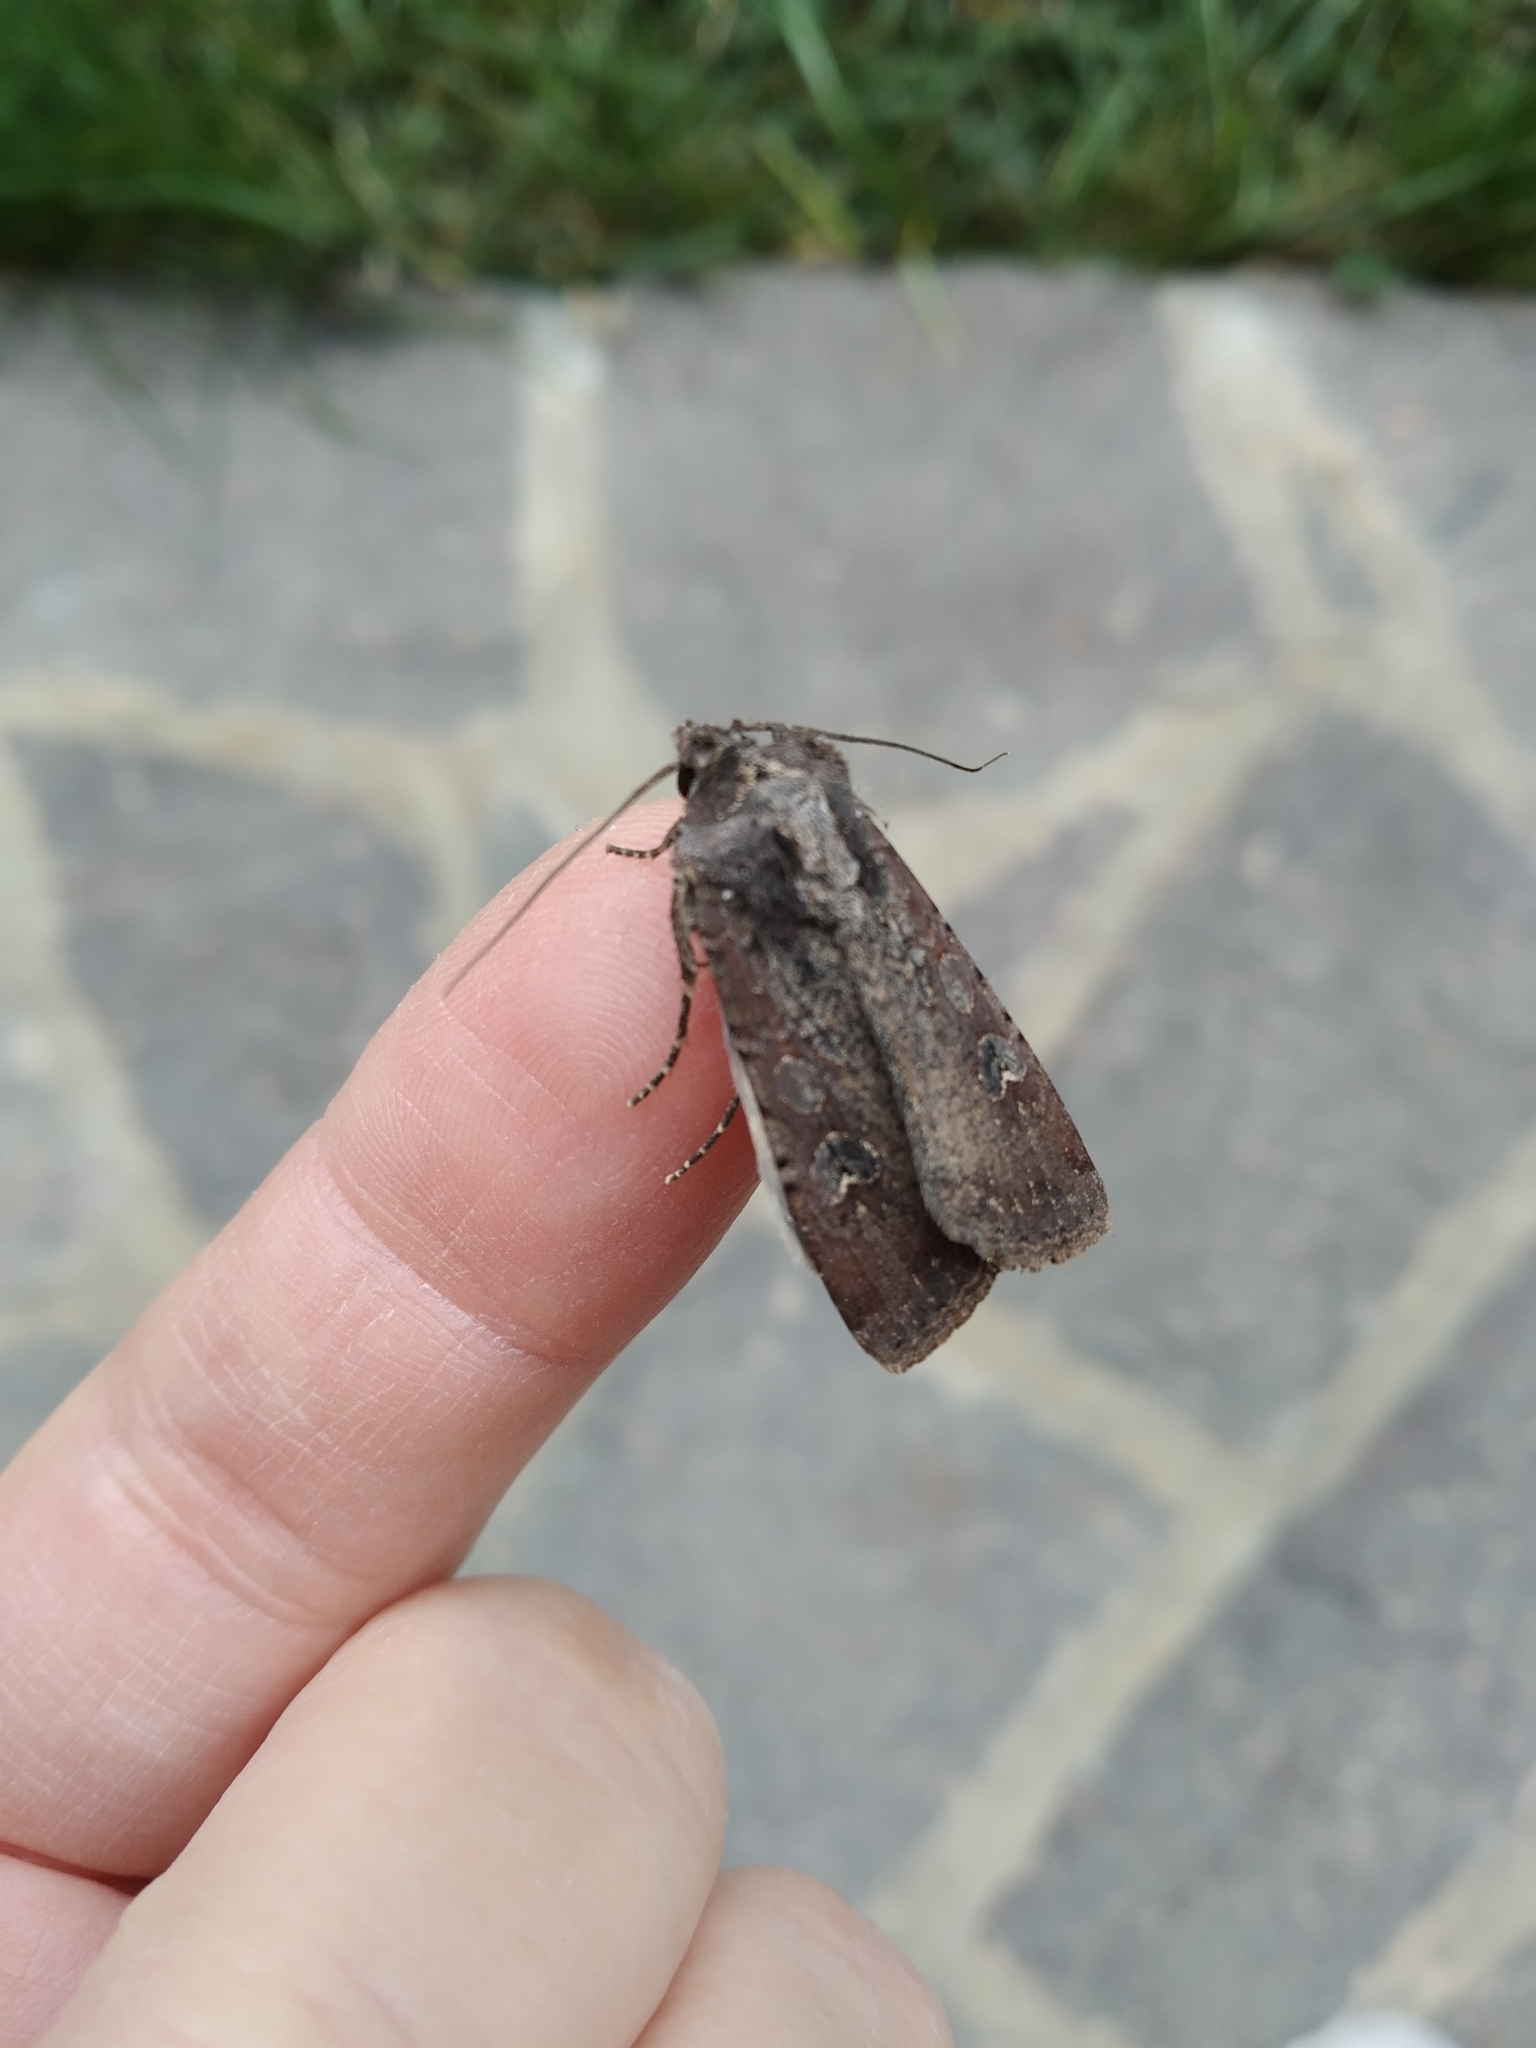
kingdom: Animalia
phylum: Arthropoda
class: Insecta
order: Lepidoptera
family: Noctuidae
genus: Peridroma
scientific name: Peridroma saucia
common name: Pearly underwing
